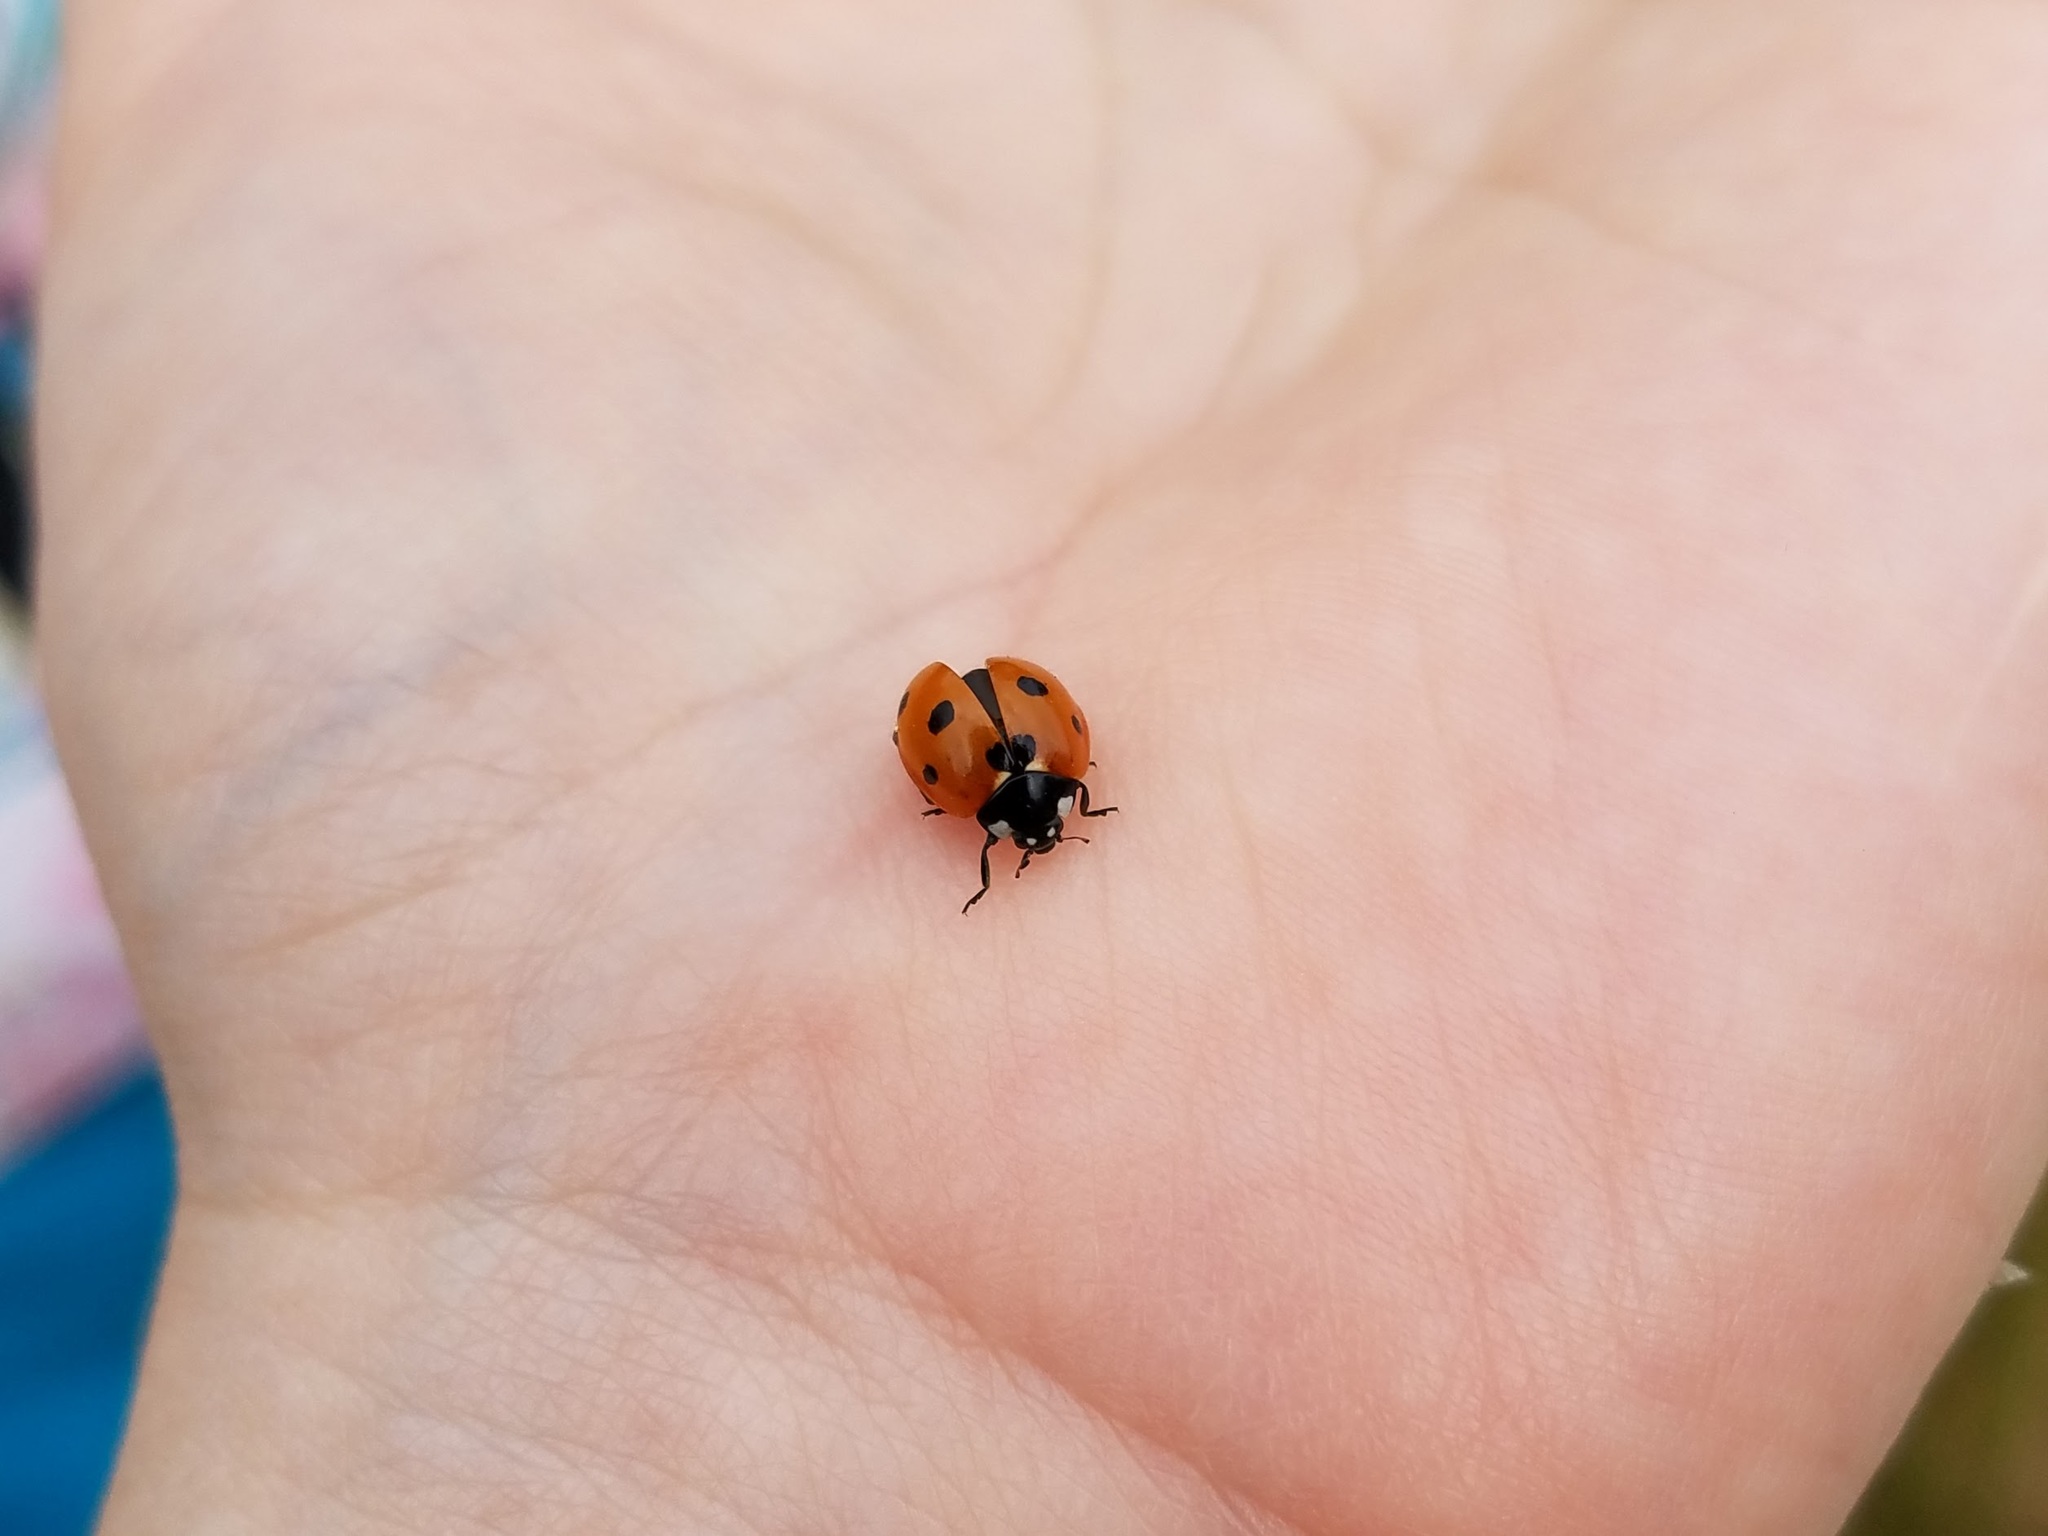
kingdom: Animalia
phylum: Arthropoda
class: Insecta
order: Coleoptera
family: Coccinellidae
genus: Coccinella
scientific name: Coccinella septempunctata
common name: Sevenspotted lady beetle
